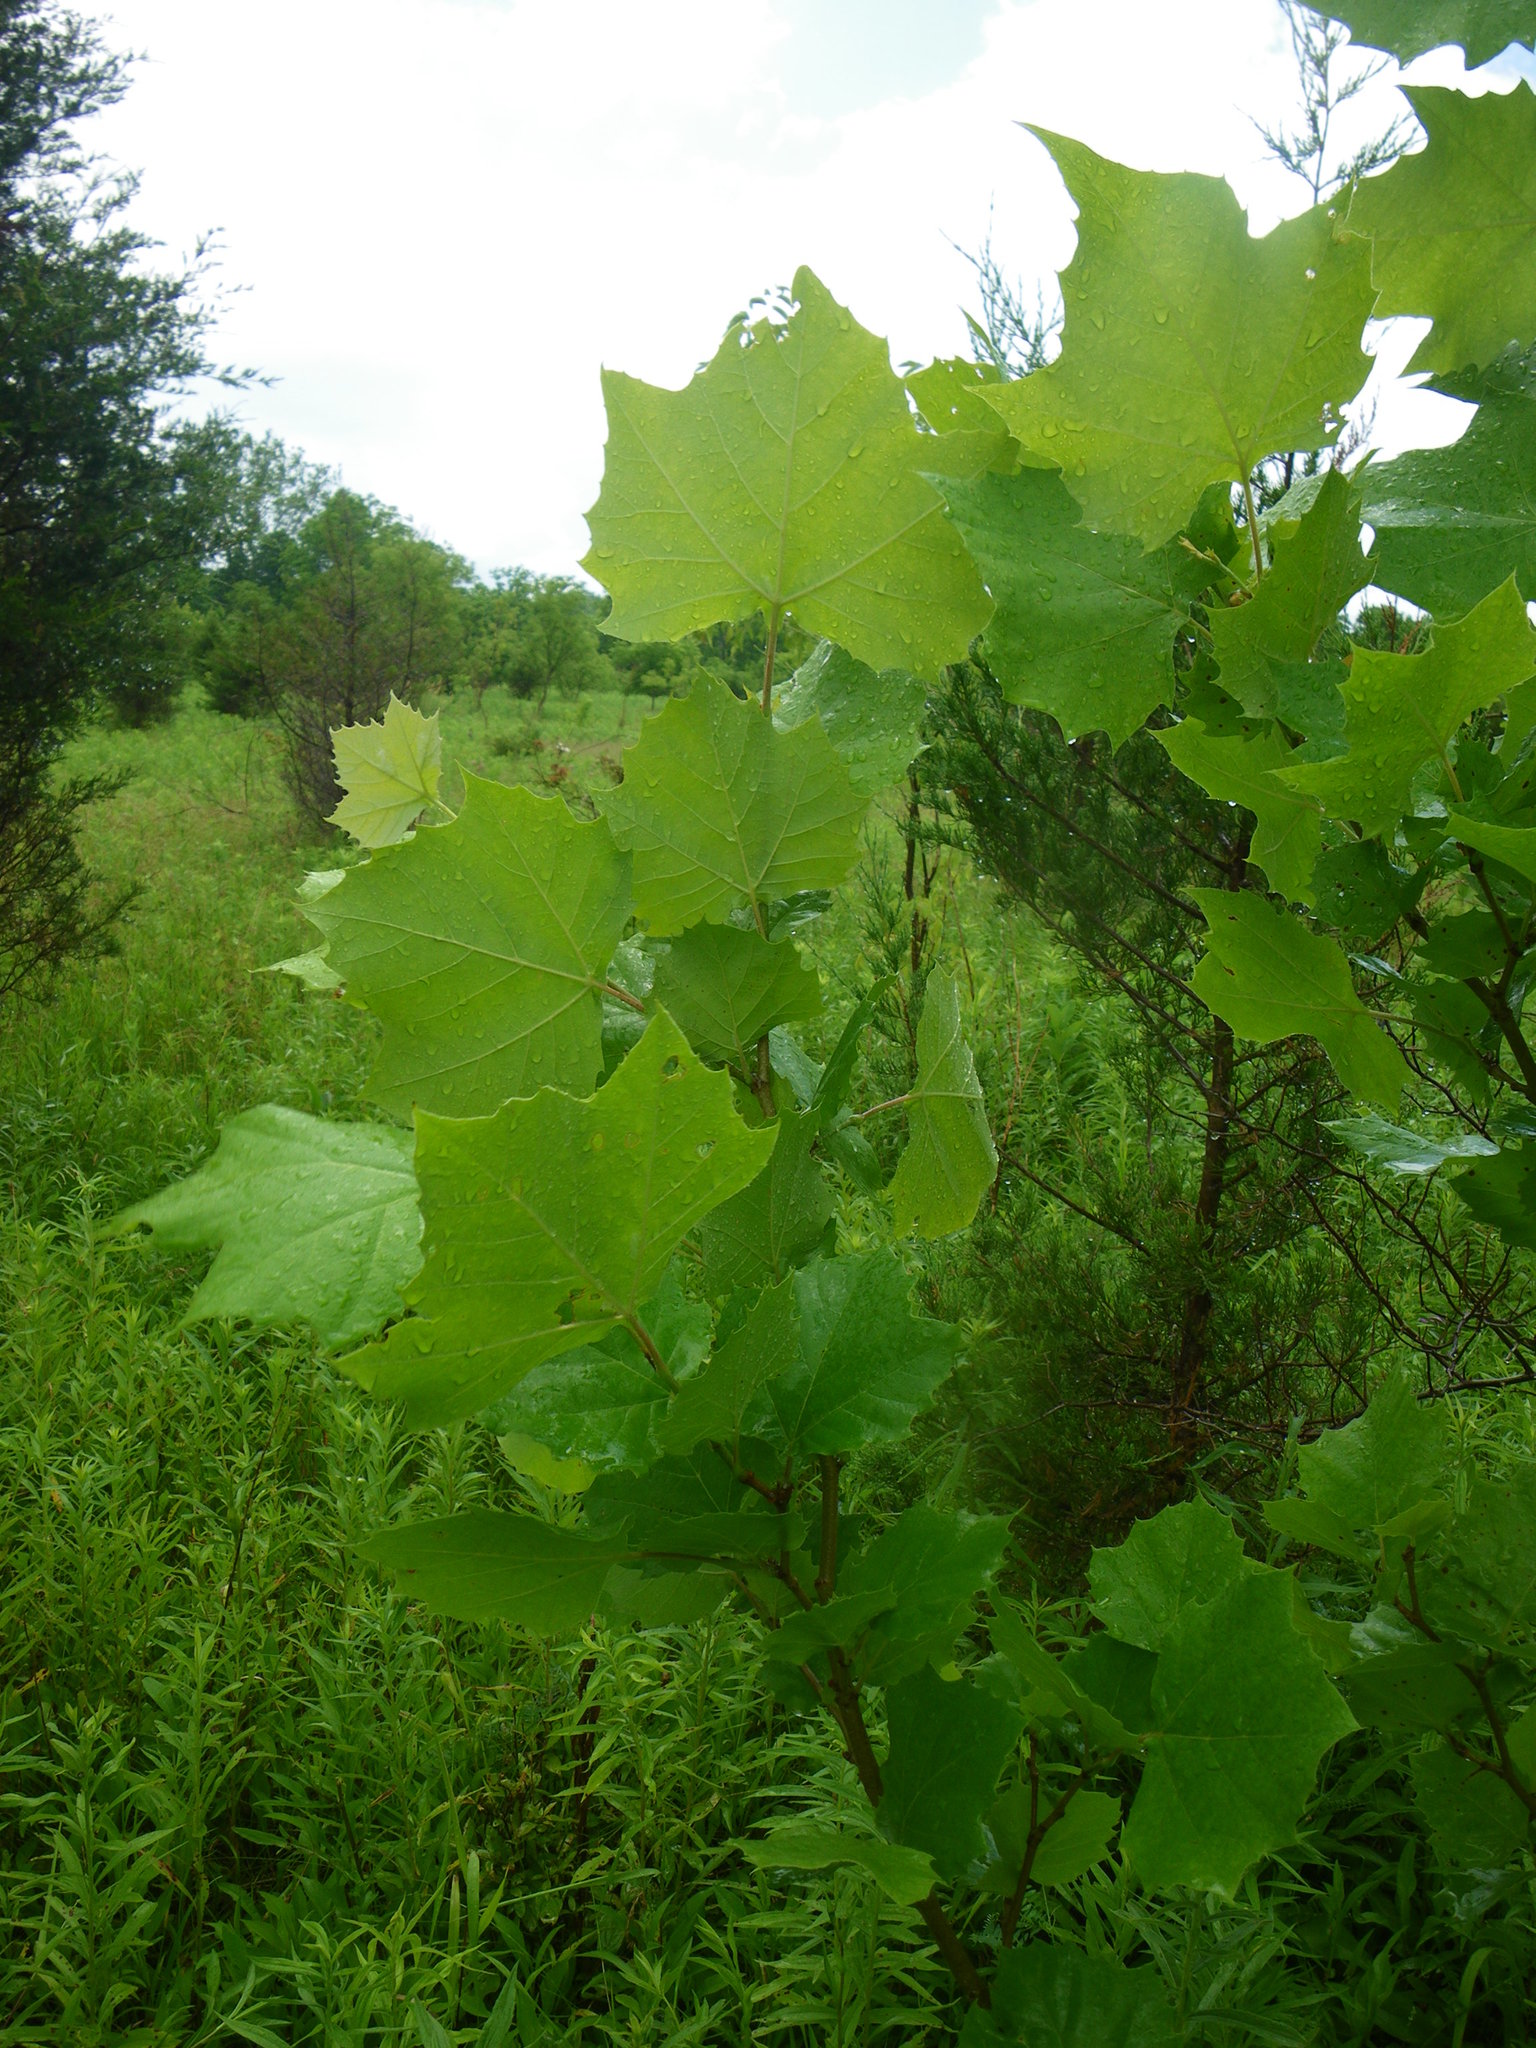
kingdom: Plantae
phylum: Tracheophyta
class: Magnoliopsida
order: Proteales
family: Platanaceae
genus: Platanus
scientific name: Platanus occidentalis
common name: American sycamore
